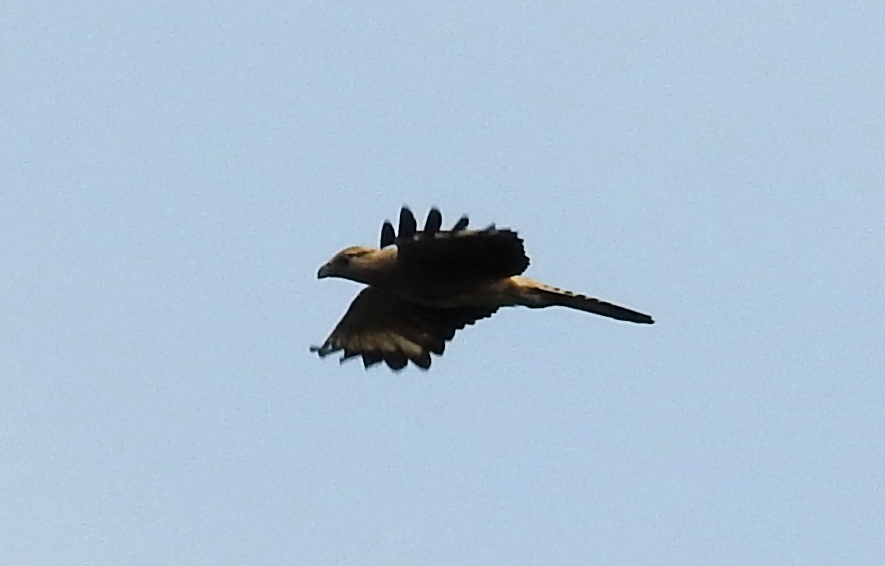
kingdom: Animalia
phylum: Chordata
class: Aves
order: Falconiformes
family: Falconidae
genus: Daptrius
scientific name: Daptrius
